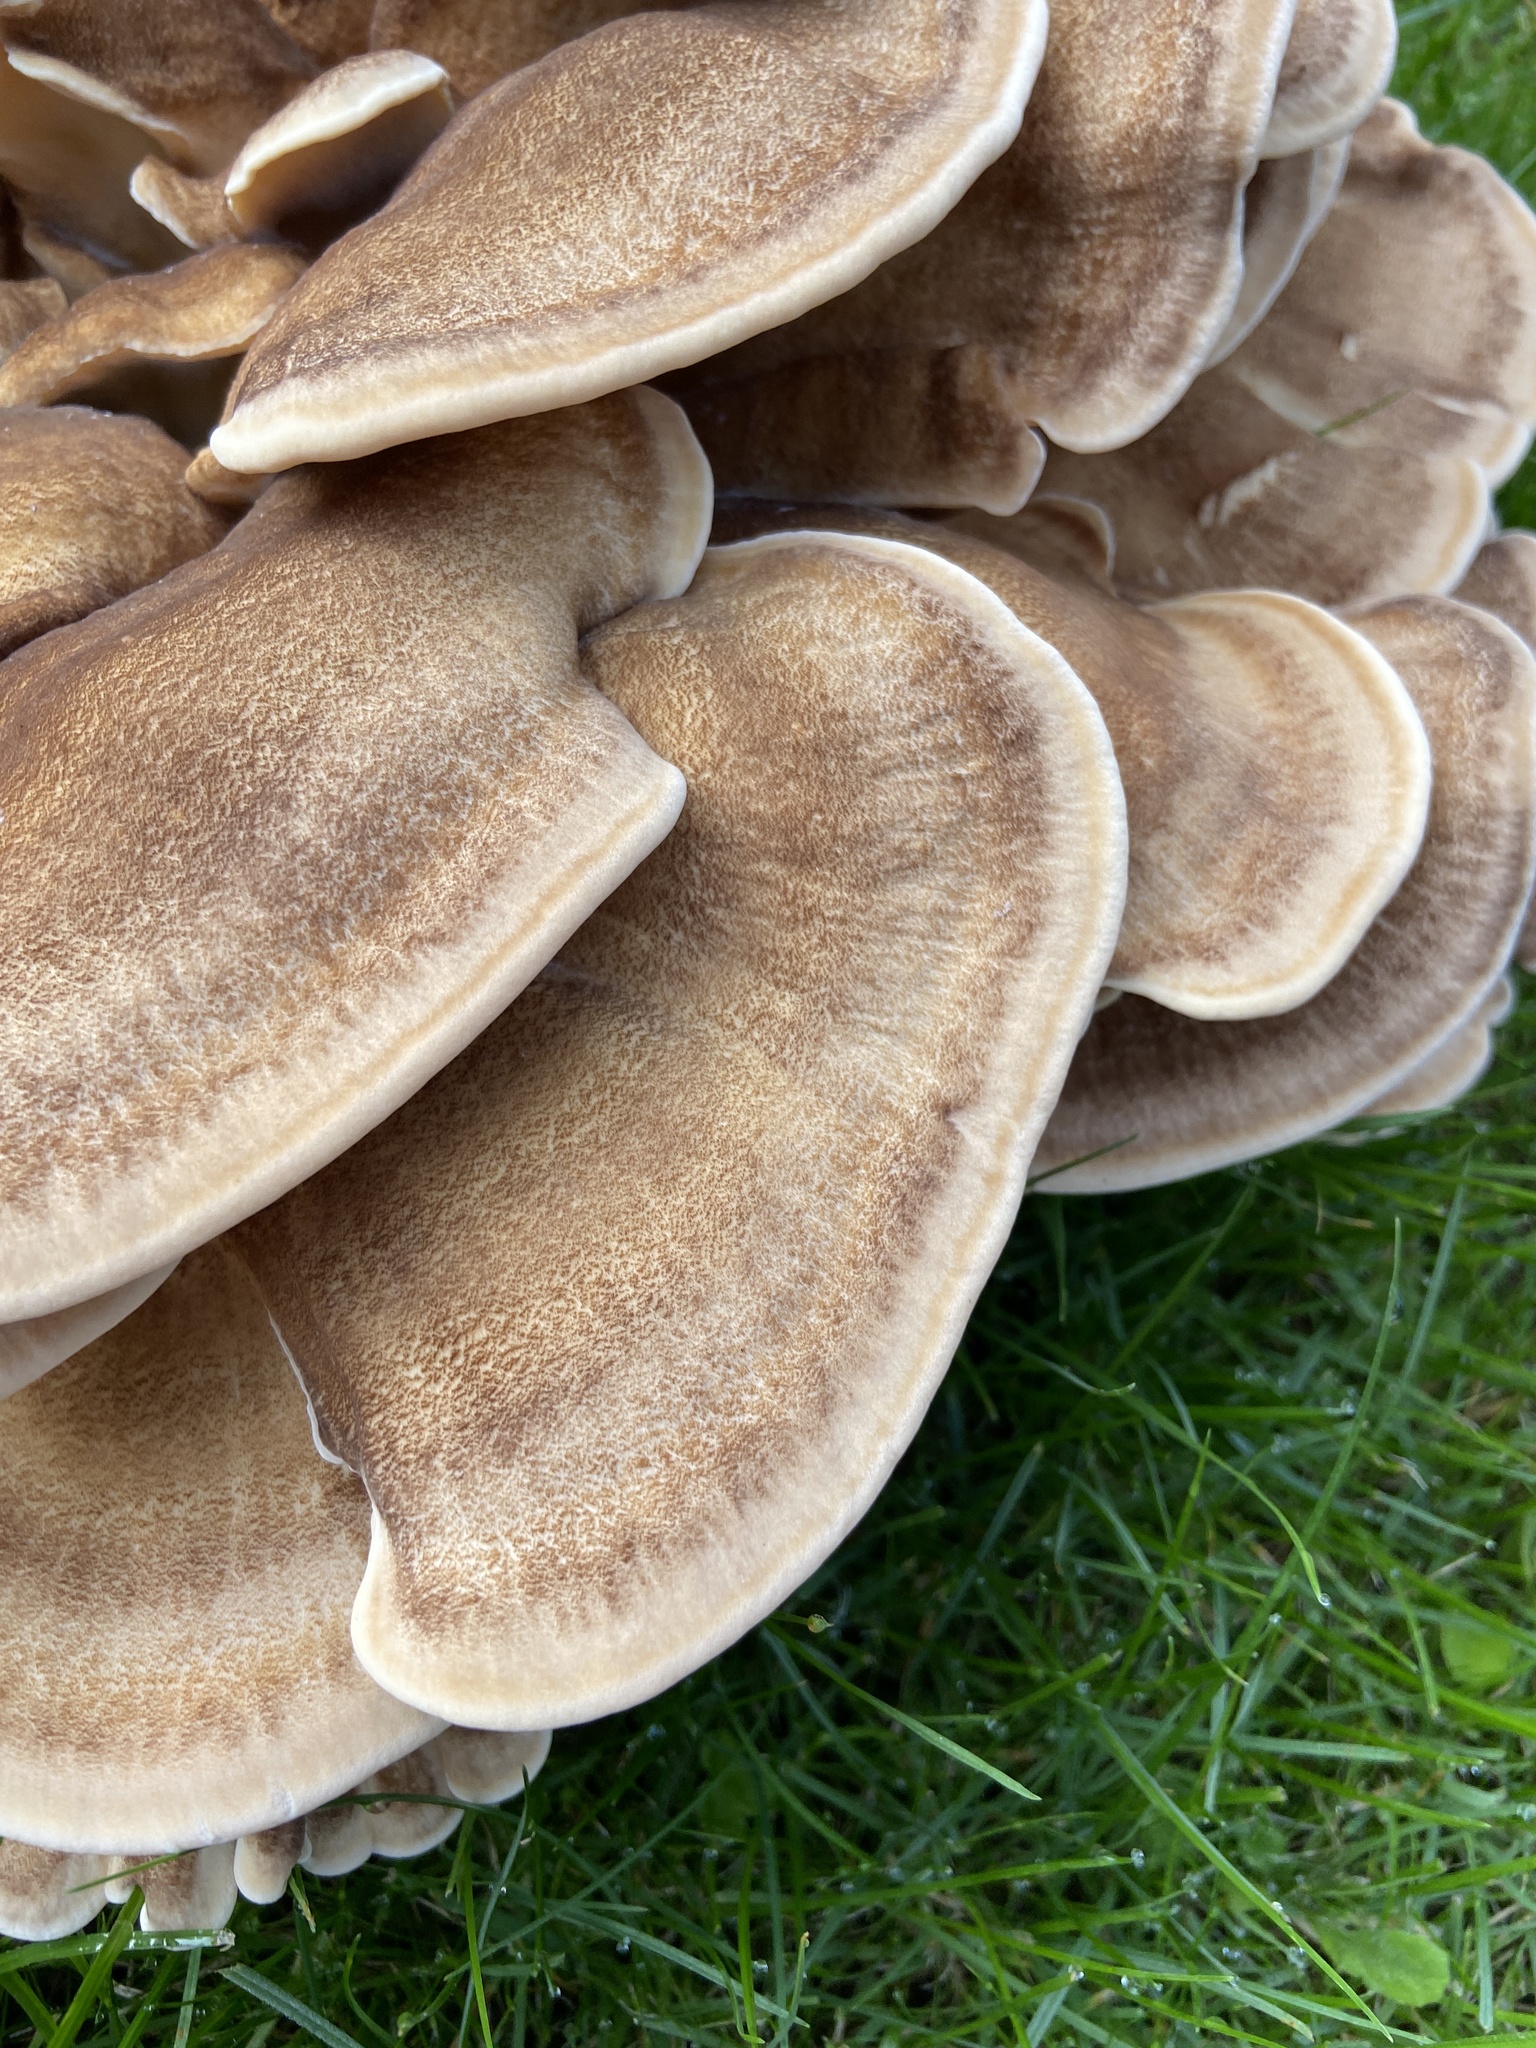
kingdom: Fungi
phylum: Basidiomycota
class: Agaricomycetes
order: Polyporales
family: Meripilaceae
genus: Meripilus
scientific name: Meripilus giganteus
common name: Giant polypore
